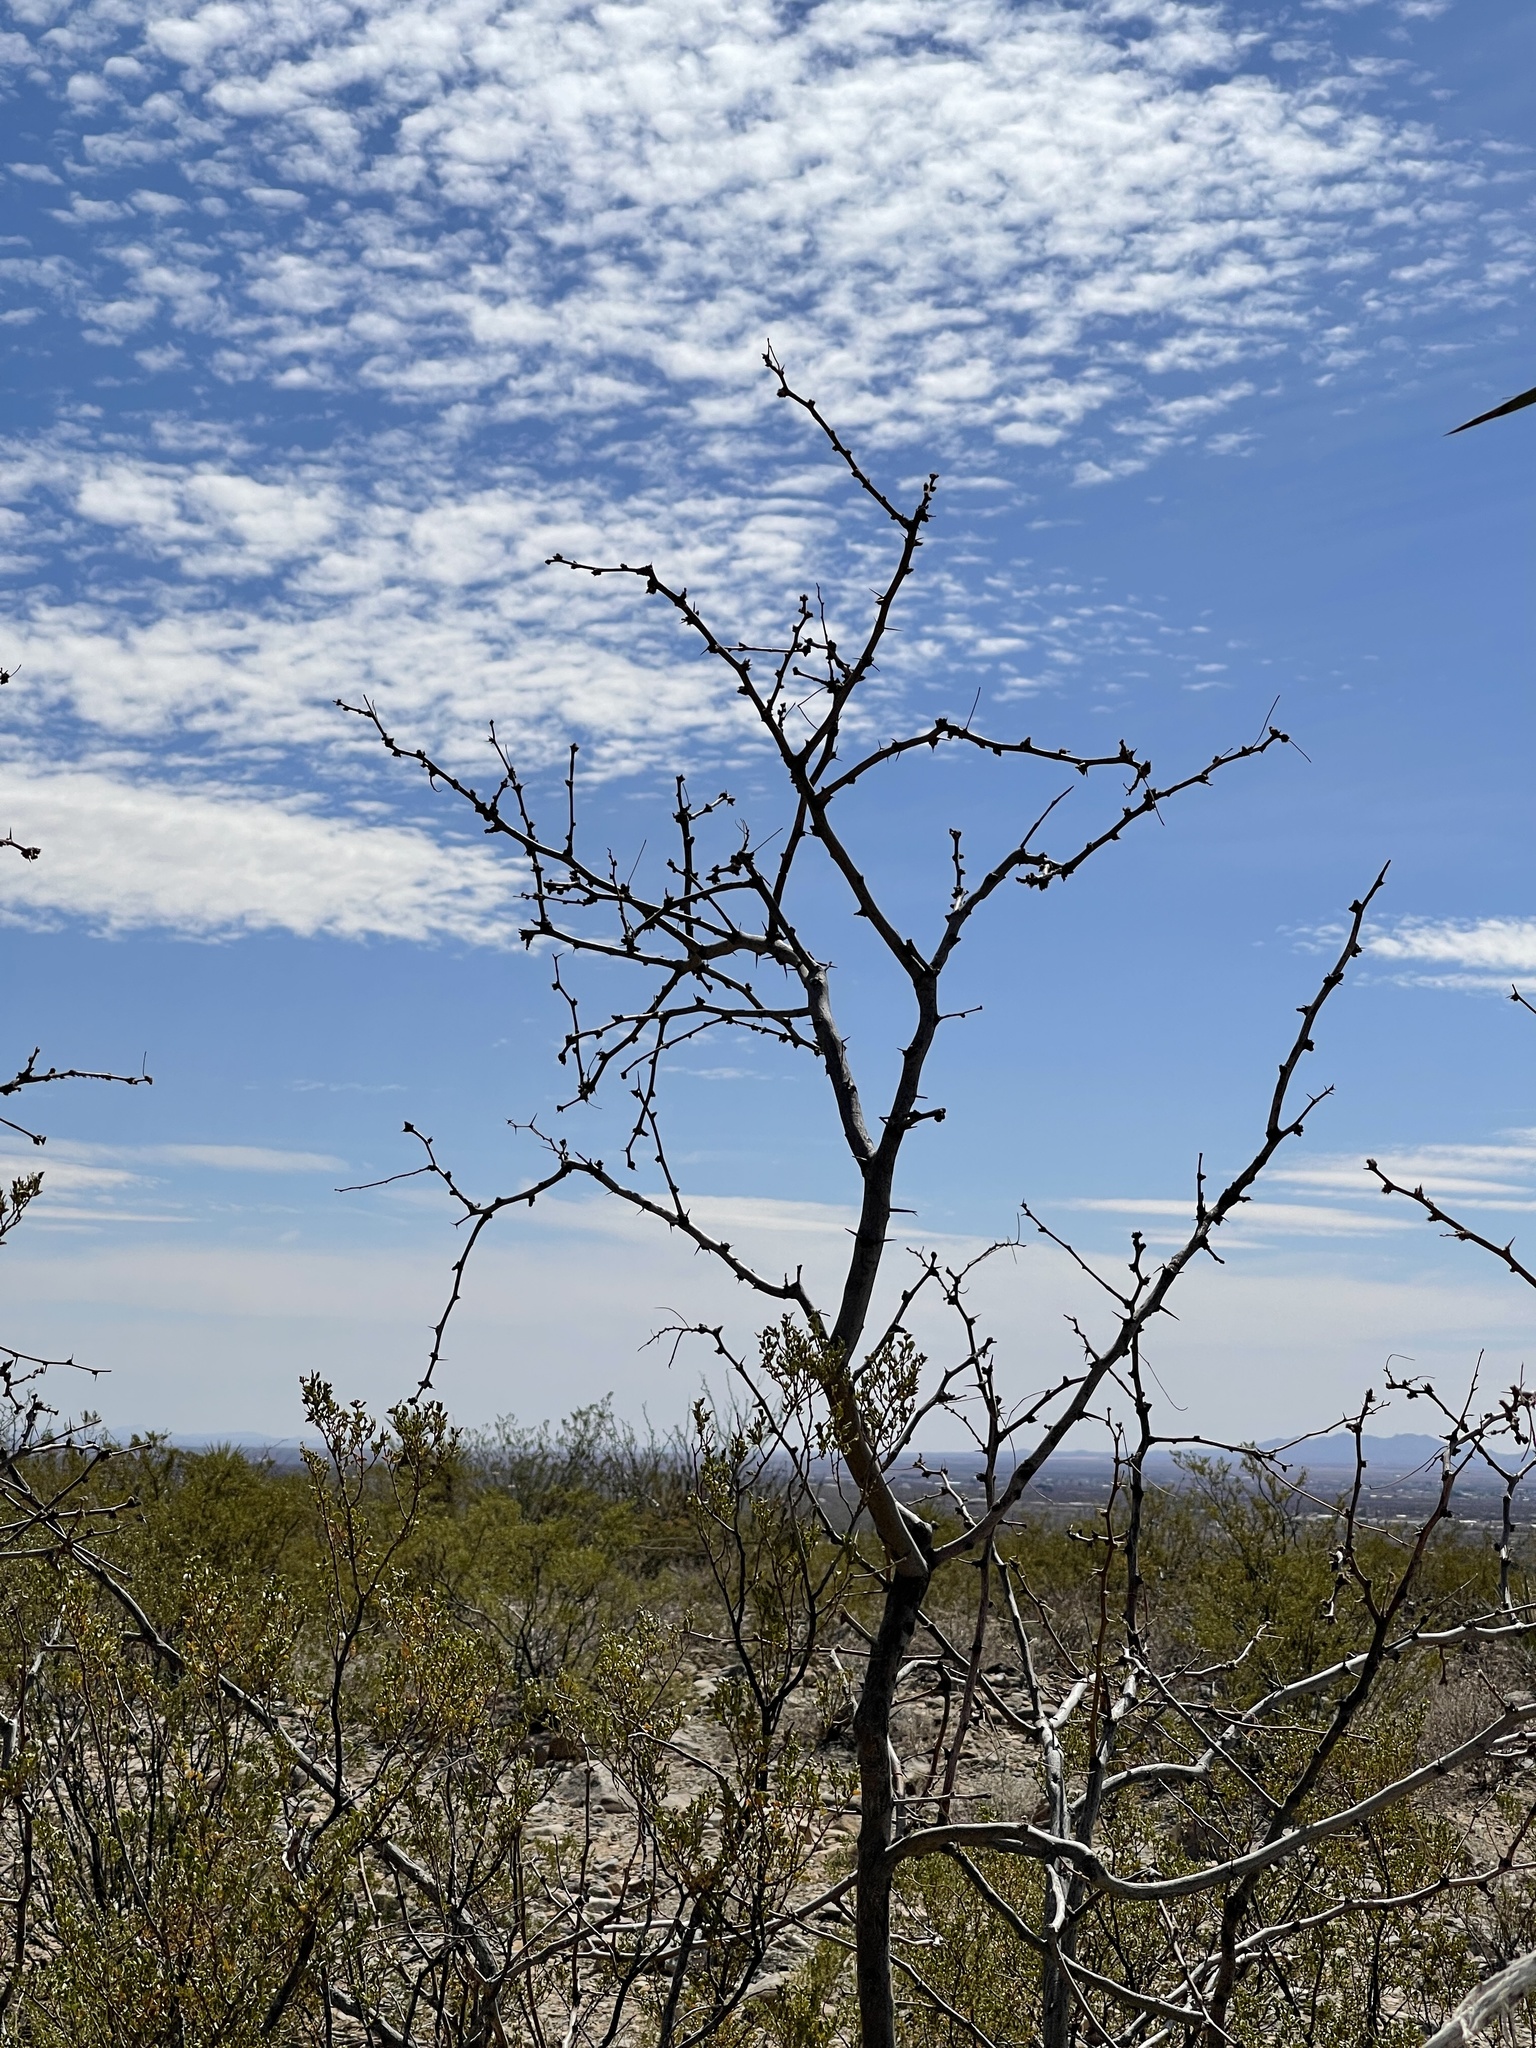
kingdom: Plantae
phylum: Tracheophyta
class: Magnoliopsida
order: Fabales
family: Fabaceae
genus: Prosopis
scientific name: Prosopis glandulosa
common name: Honey mesquite
